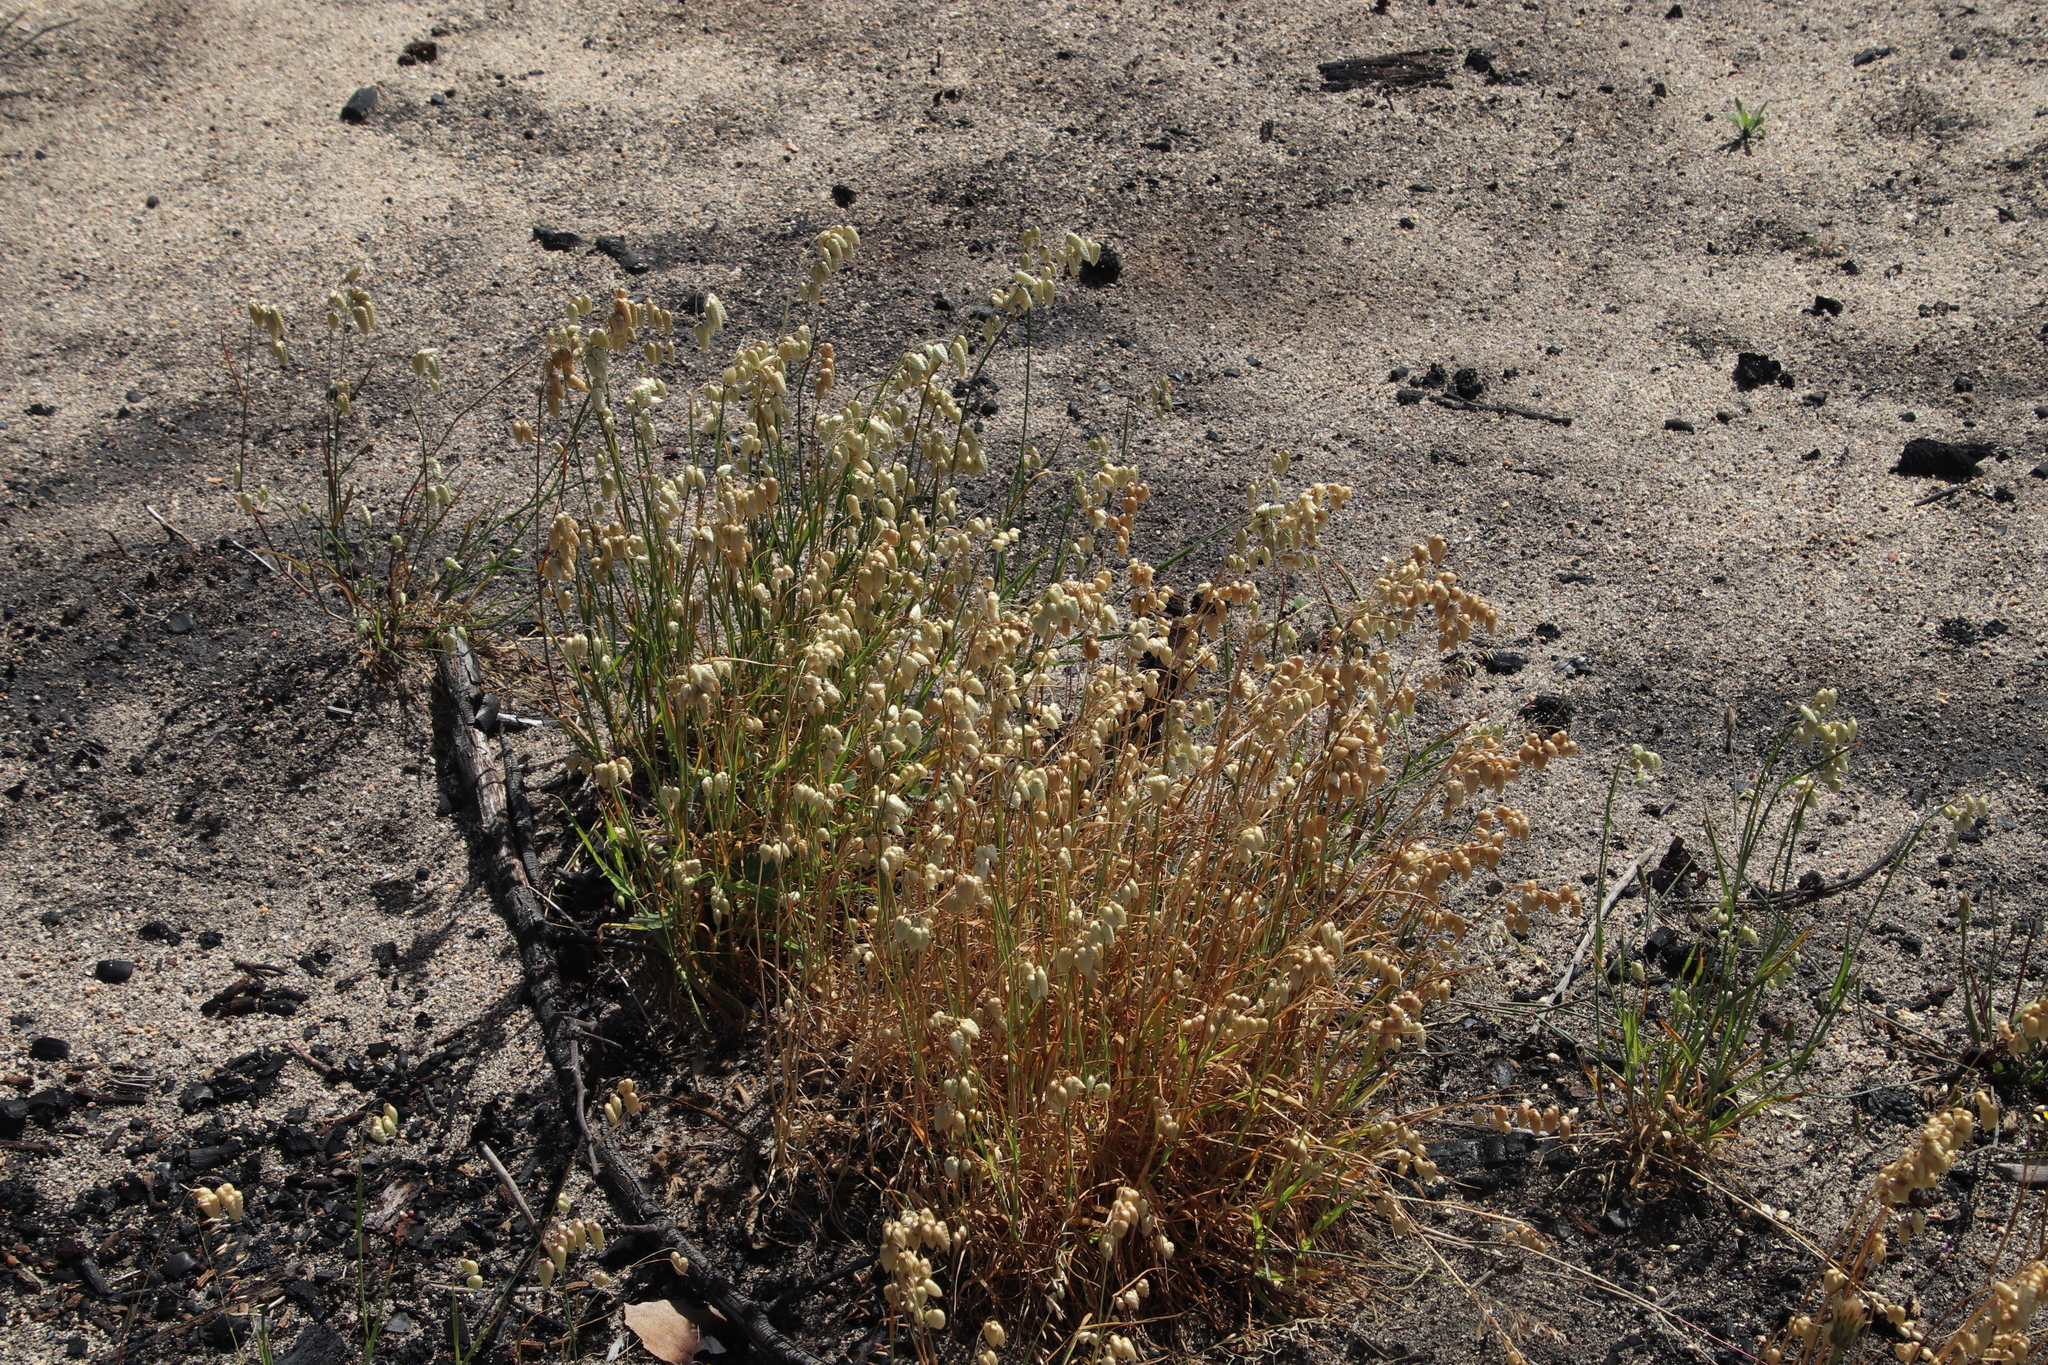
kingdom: Plantae
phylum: Tracheophyta
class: Liliopsida
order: Poales
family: Poaceae
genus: Briza
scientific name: Briza maxima
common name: Big quakinggrass
